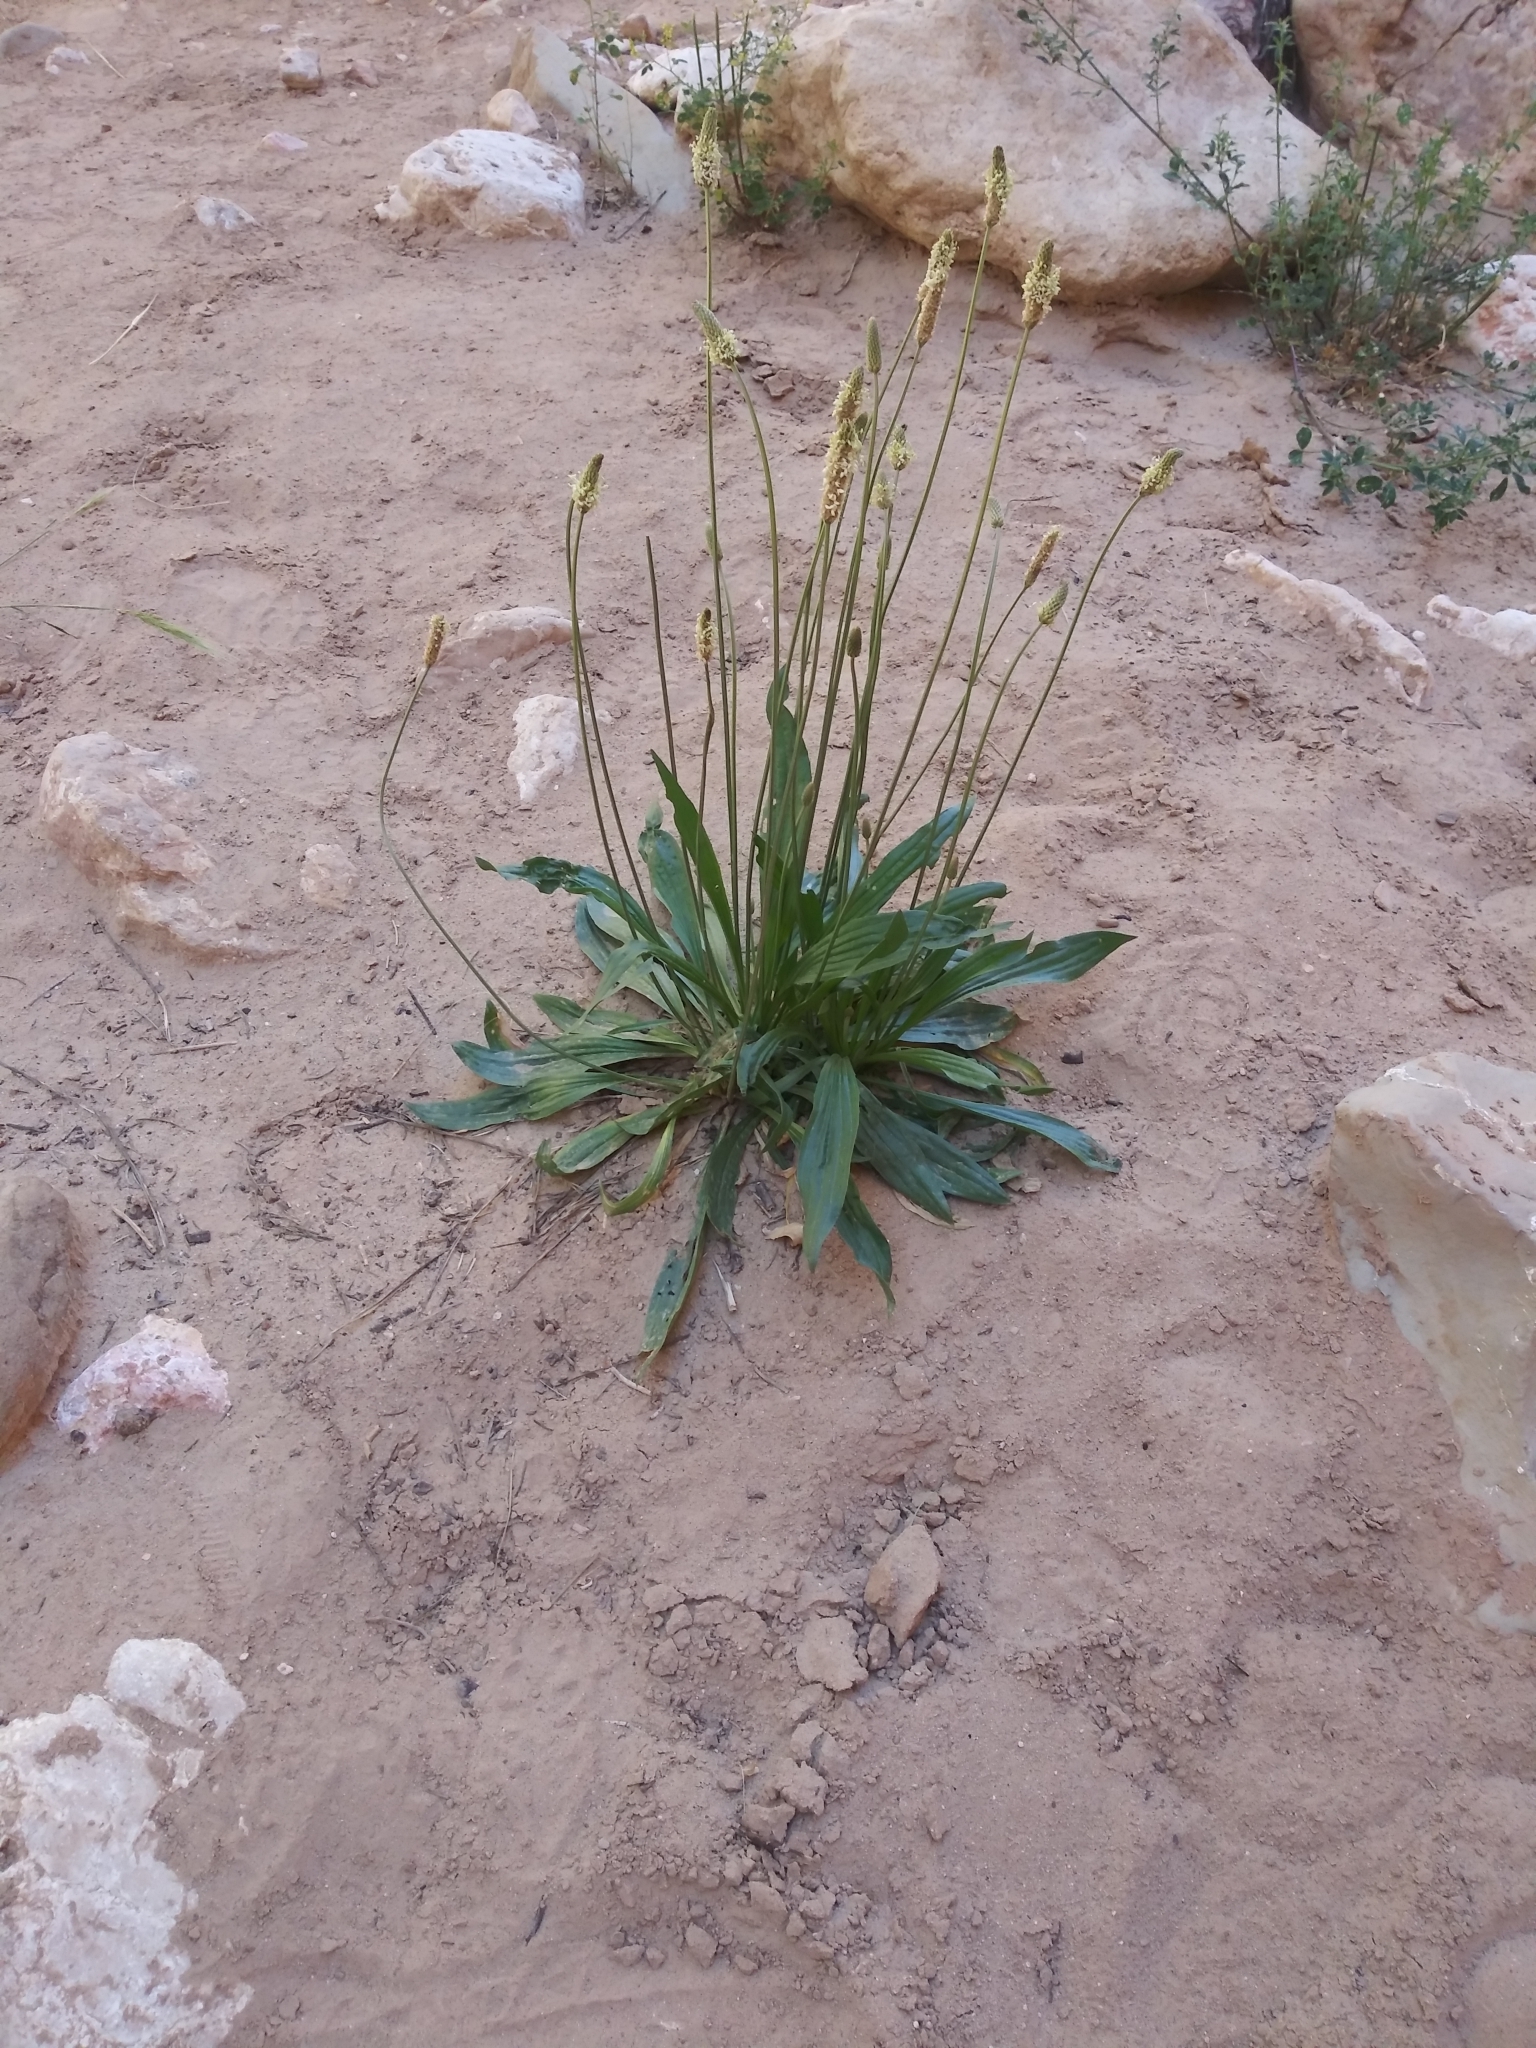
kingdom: Plantae
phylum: Tracheophyta
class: Magnoliopsida
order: Lamiales
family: Plantaginaceae
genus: Plantago
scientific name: Plantago lanceolata
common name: Ribwort plantain
